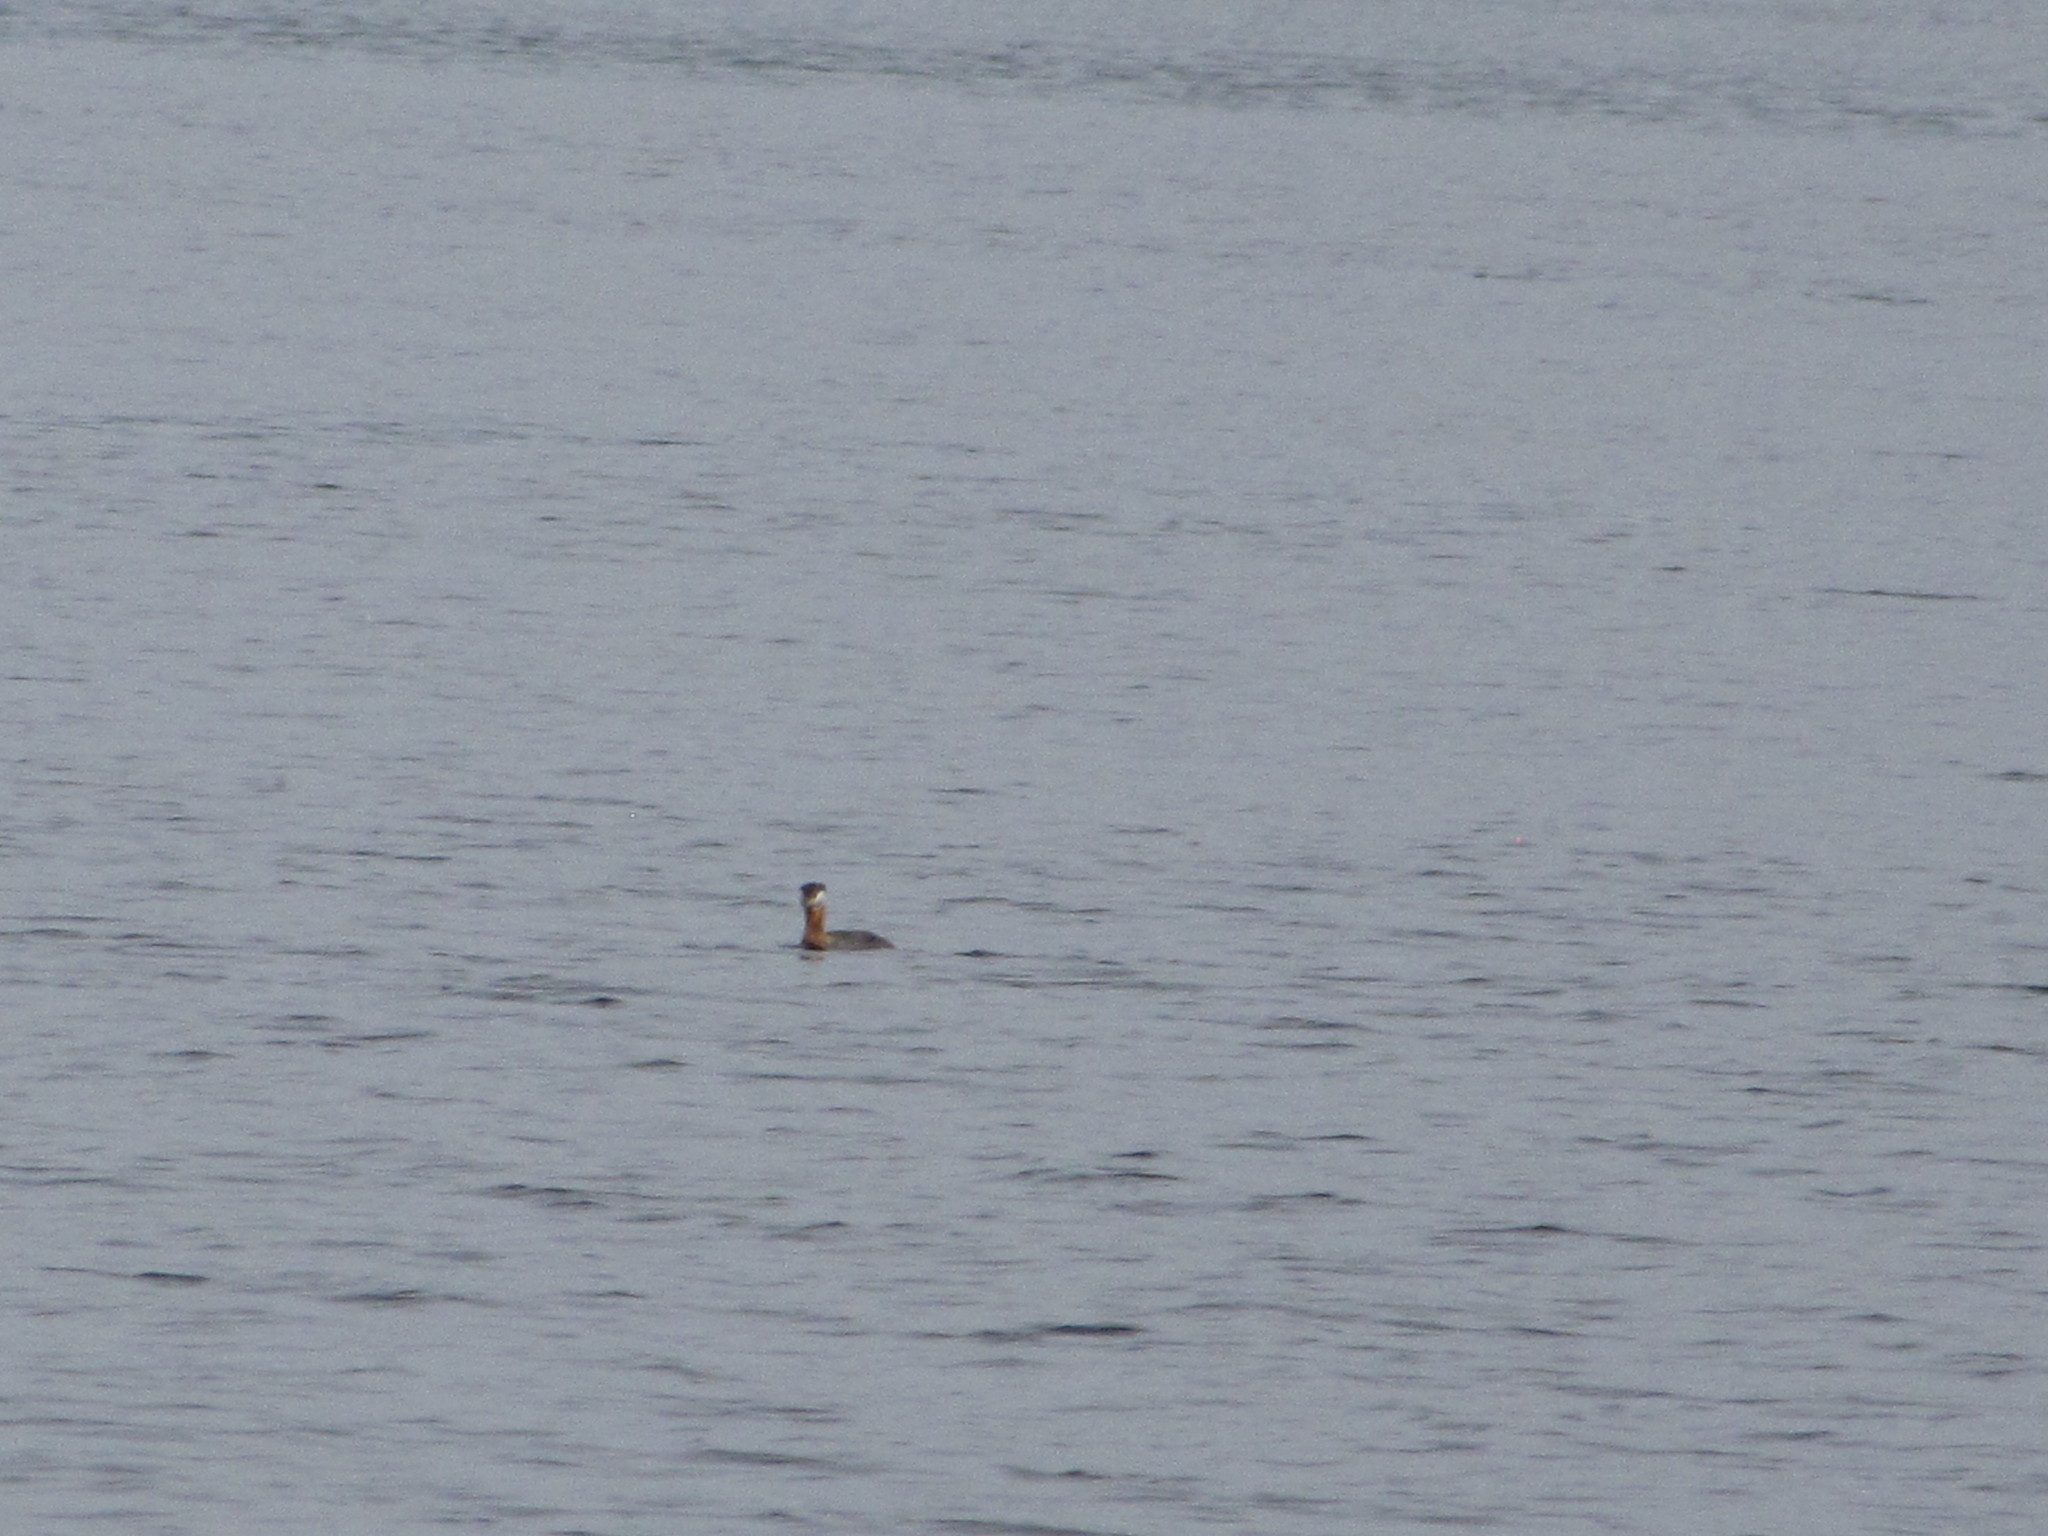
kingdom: Animalia
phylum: Chordata
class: Aves
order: Podicipediformes
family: Podicipedidae
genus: Podiceps
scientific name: Podiceps grisegena
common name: Red-necked grebe
